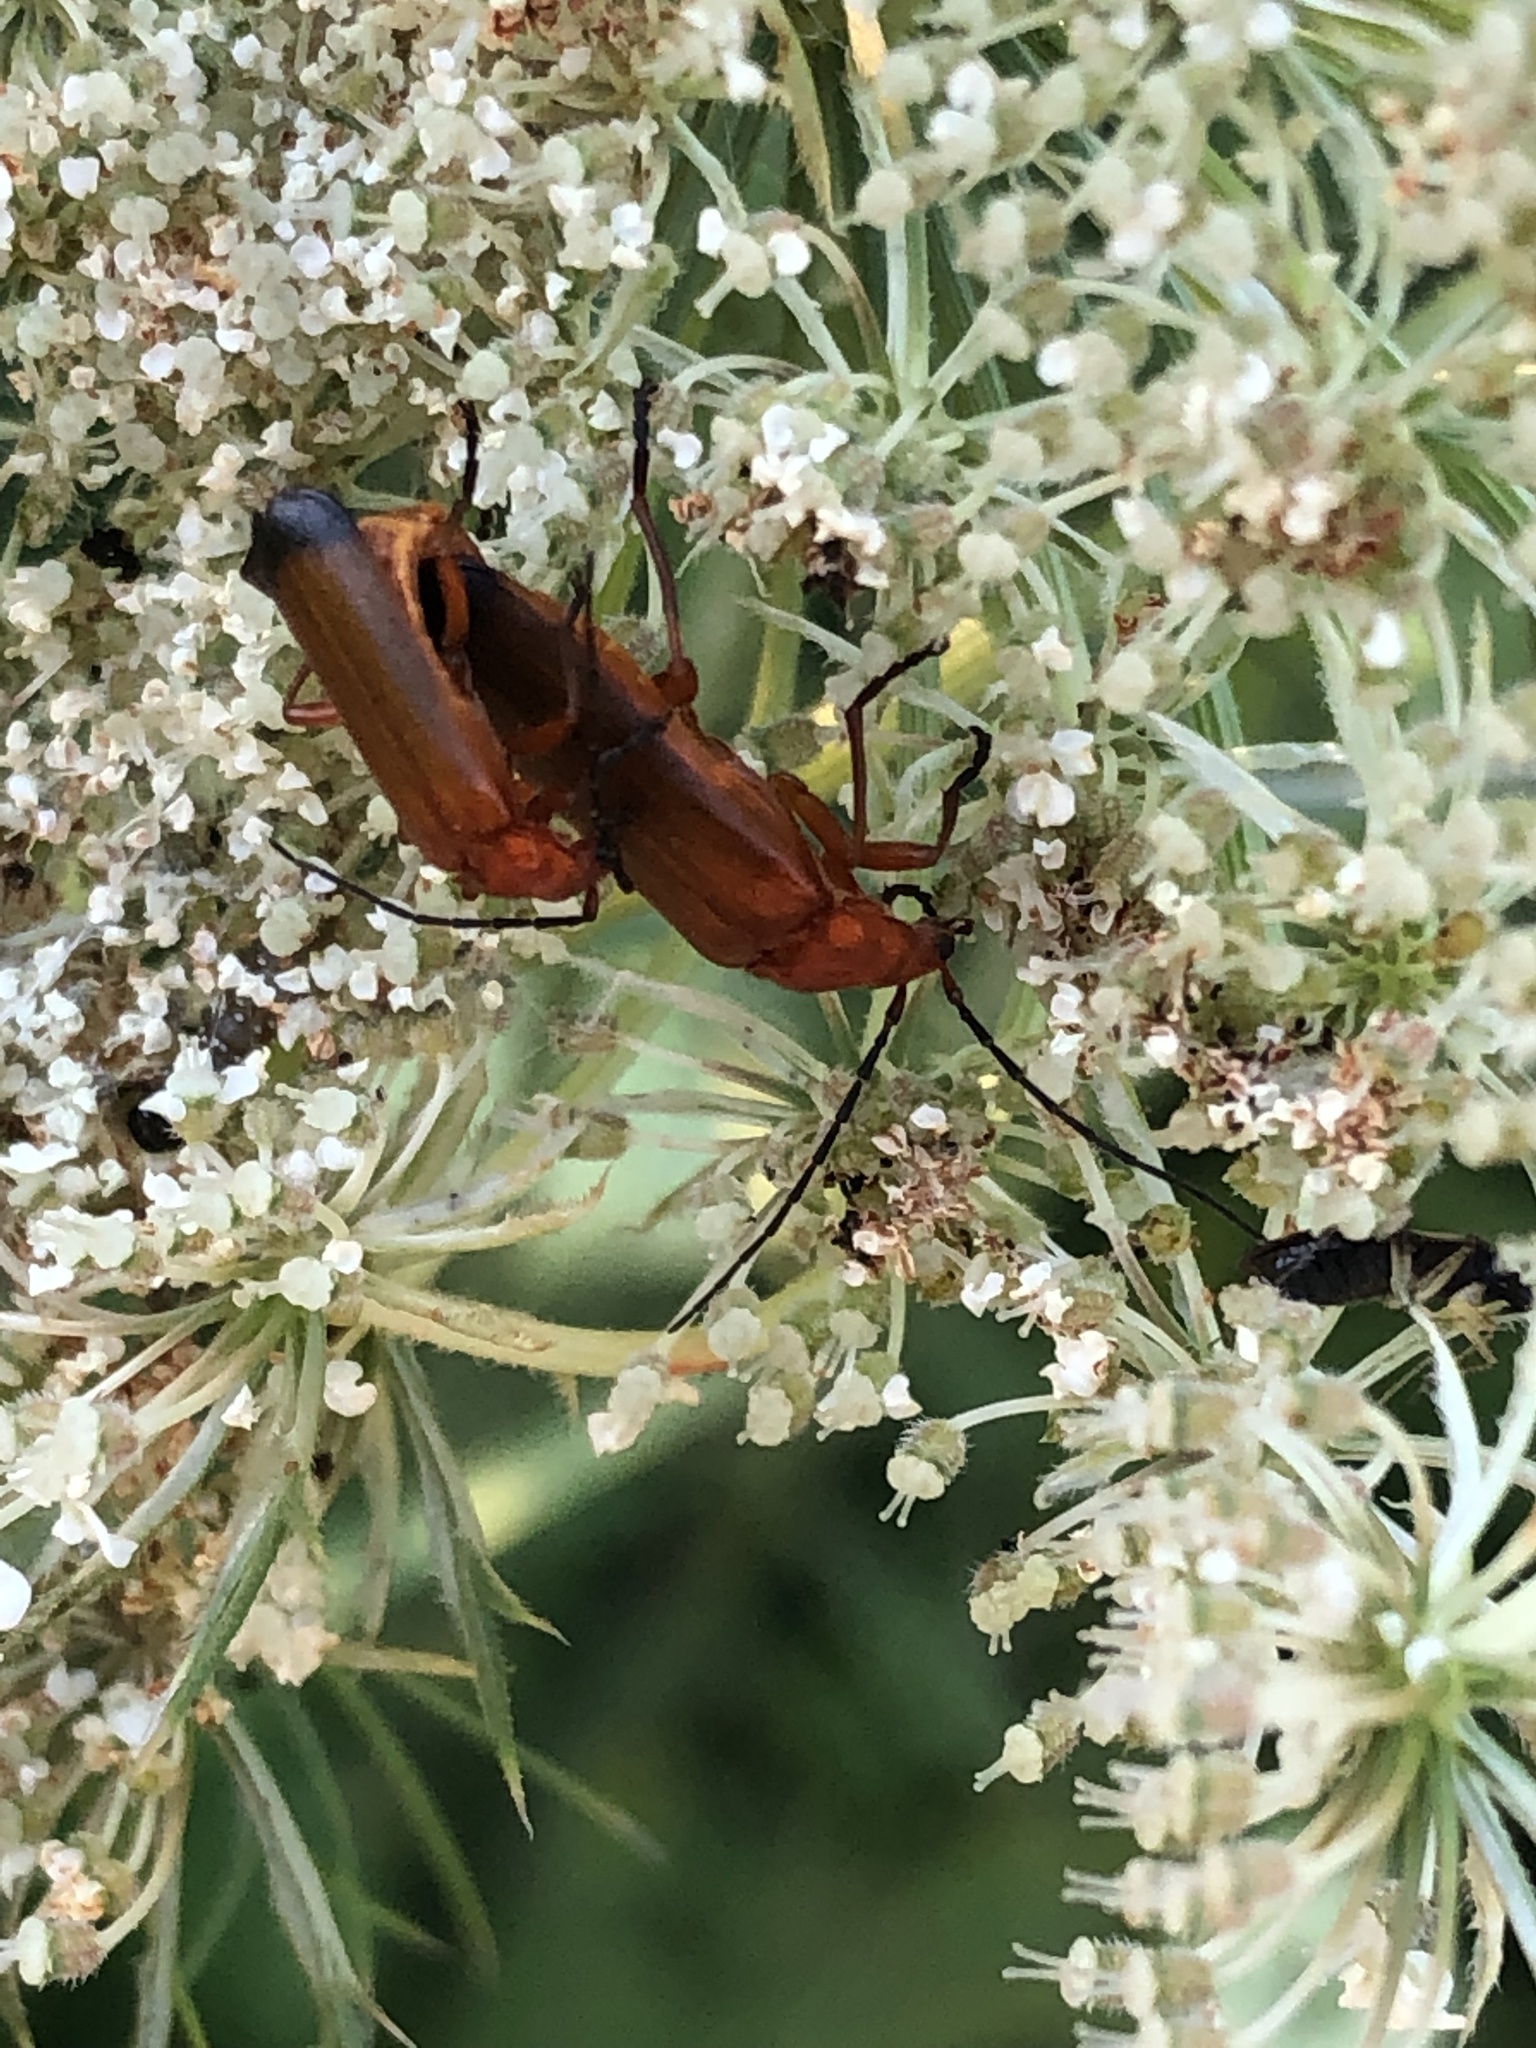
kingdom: Animalia
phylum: Arthropoda
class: Insecta
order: Coleoptera
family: Cantharidae
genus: Rhagonycha
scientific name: Rhagonycha fulva
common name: Common red soldier beetle
